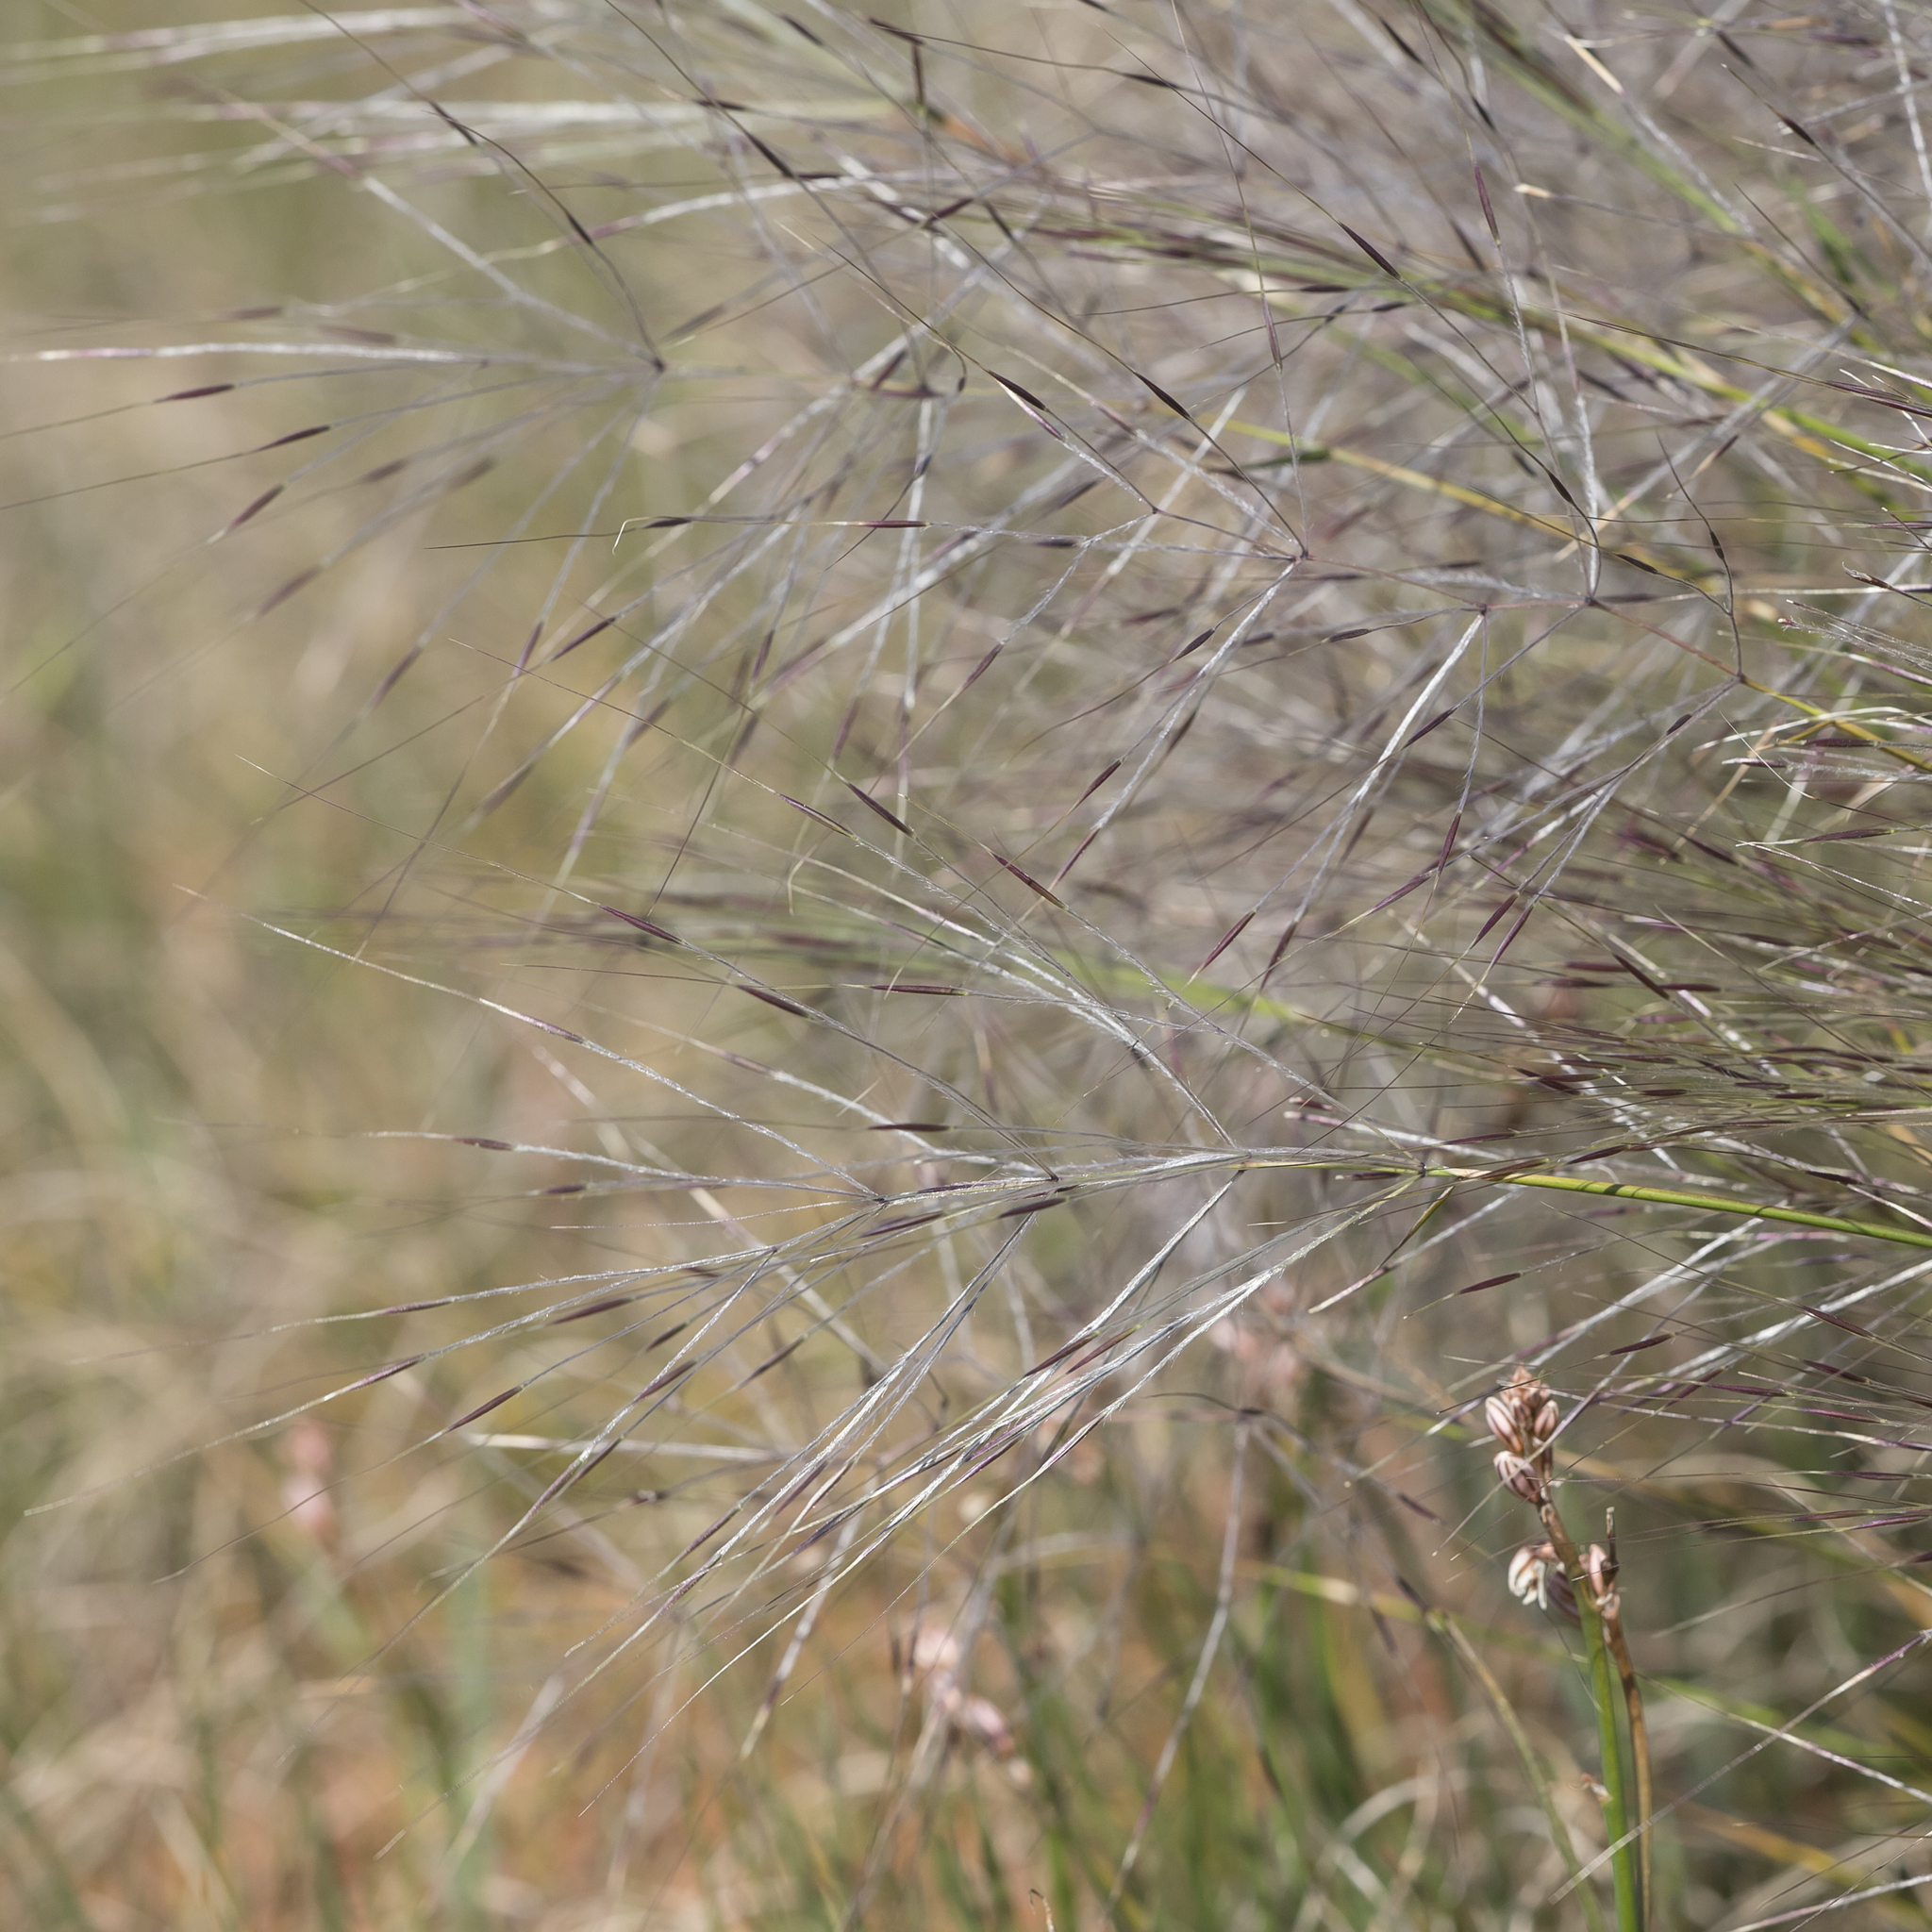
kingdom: Plantae
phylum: Tracheophyta
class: Liliopsida
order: Poales
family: Poaceae
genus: Austrostipa
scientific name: Austrostipa elegantissima
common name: Feather spear grass
